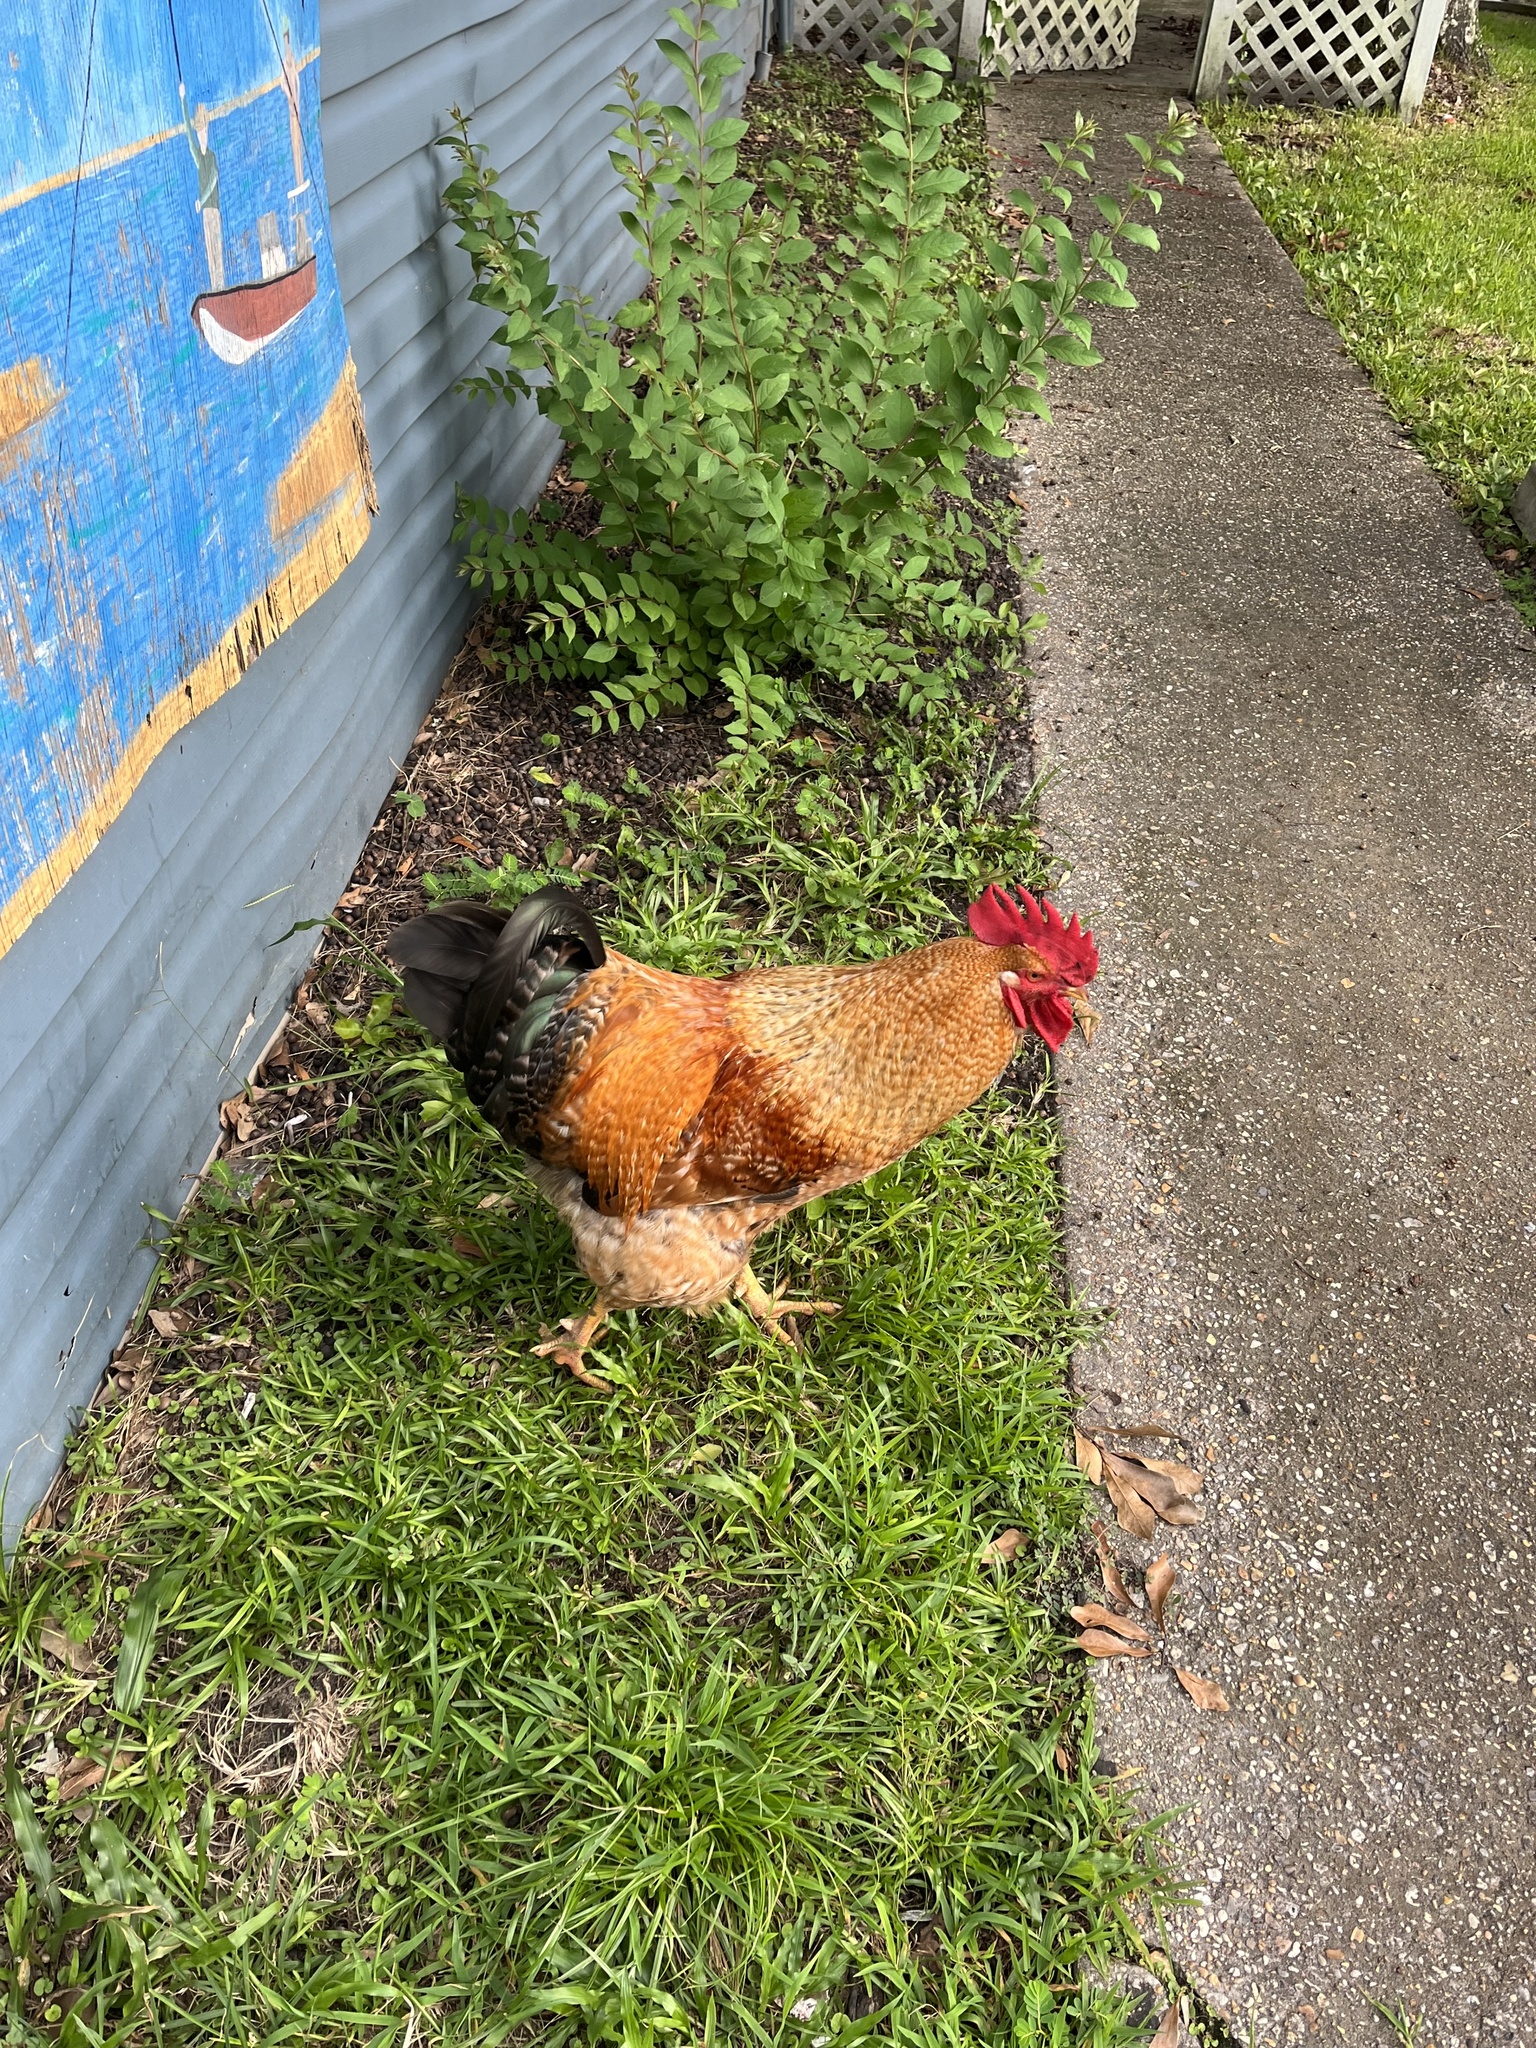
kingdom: Animalia
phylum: Chordata
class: Aves
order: Galliformes
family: Phasianidae
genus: Gallus
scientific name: Gallus gallus
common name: Red junglefowl
